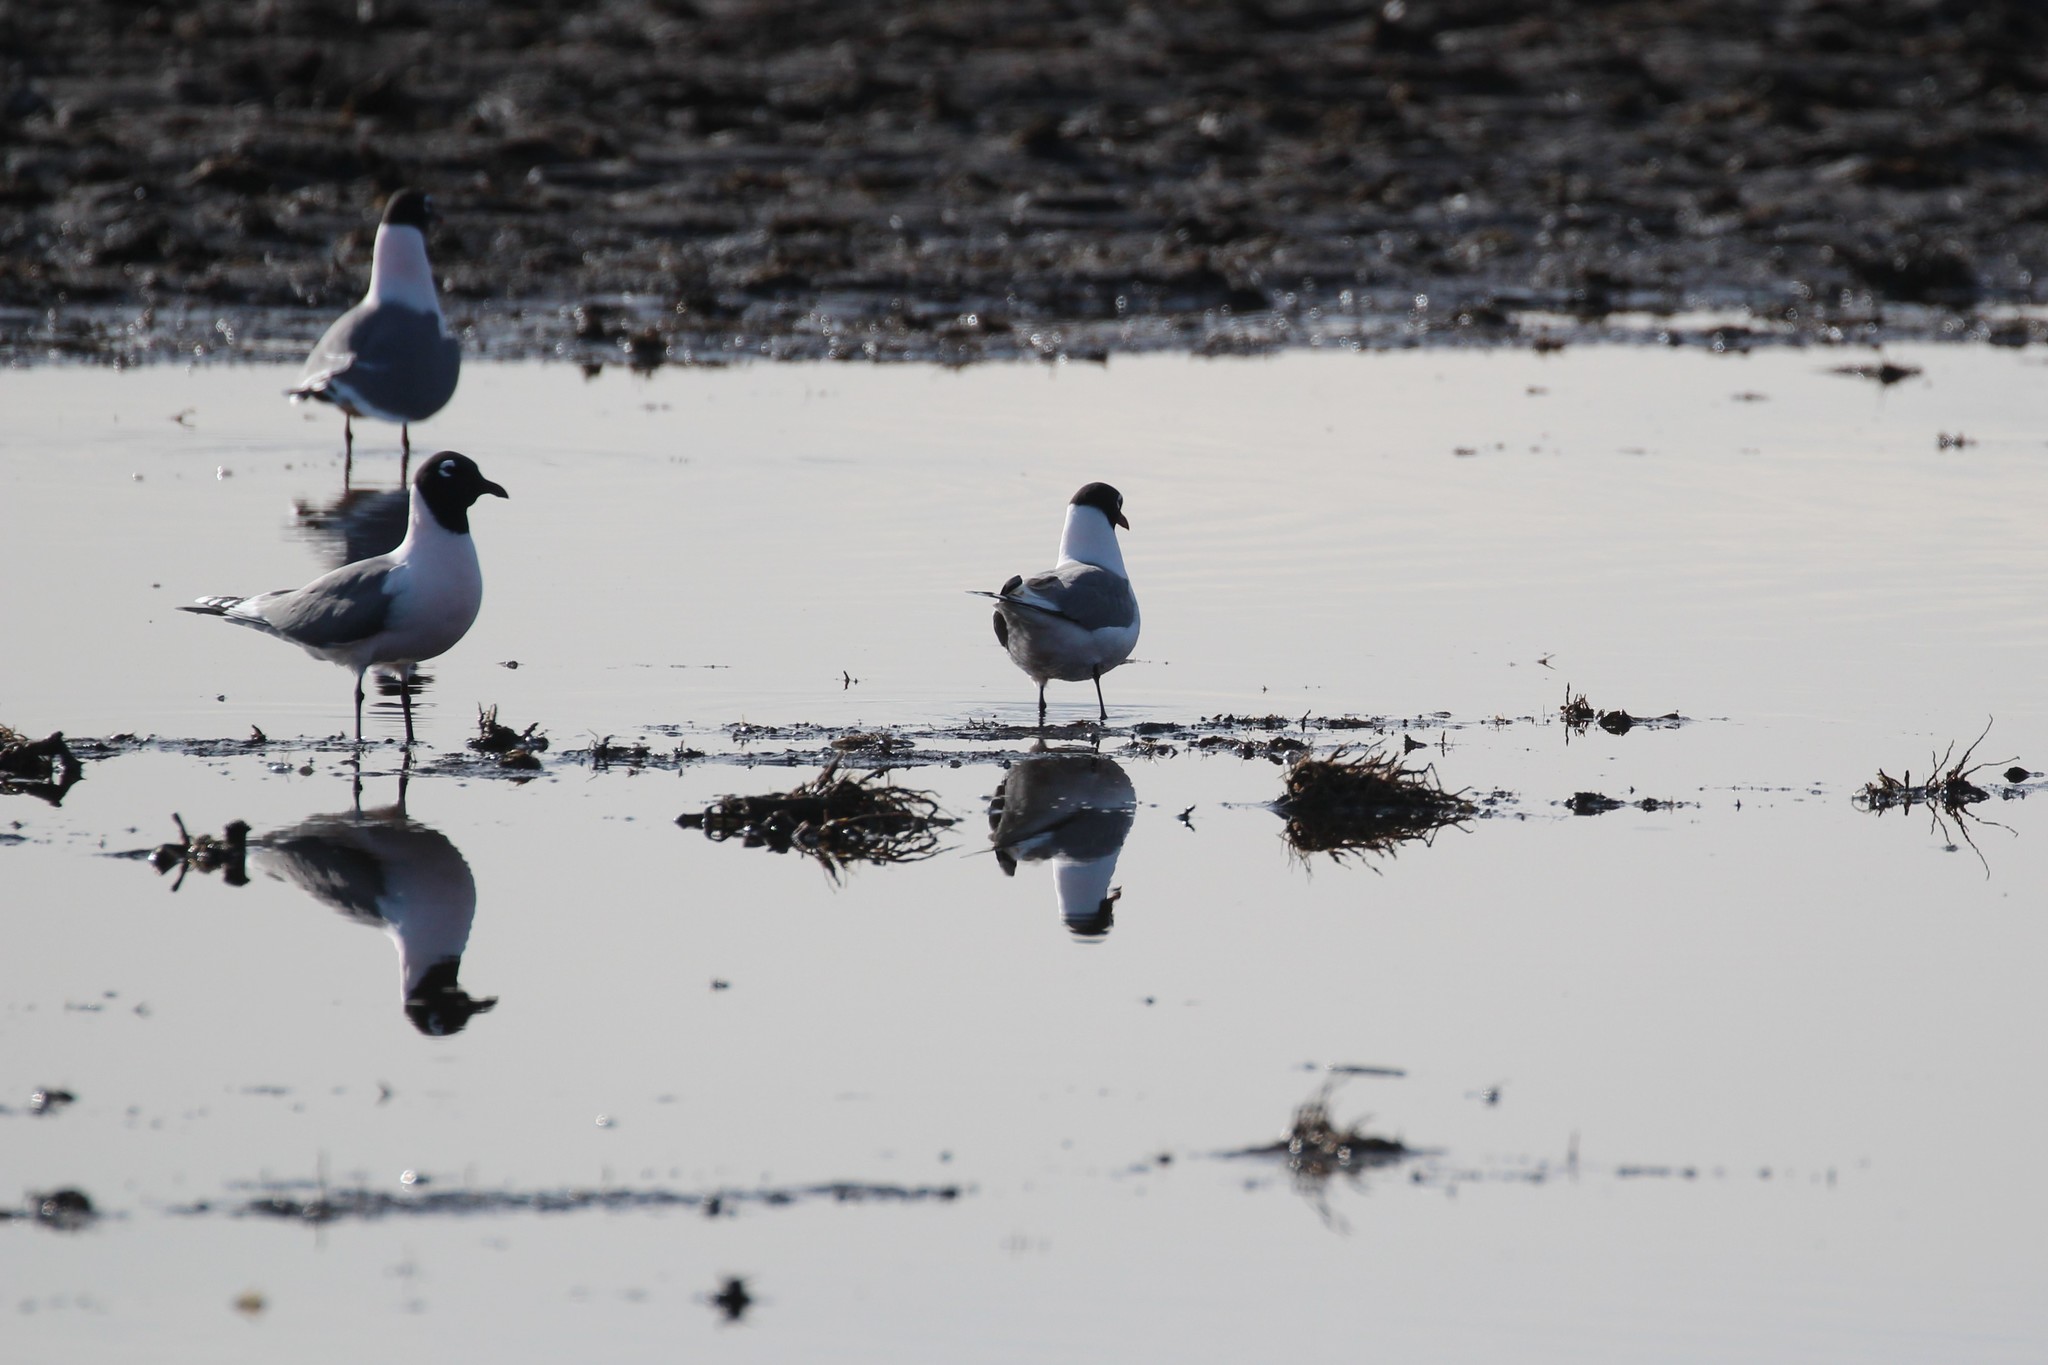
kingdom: Animalia
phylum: Chordata
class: Aves
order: Charadriiformes
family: Laridae
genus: Leucophaeus
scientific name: Leucophaeus pipixcan
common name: Franklin's gull
